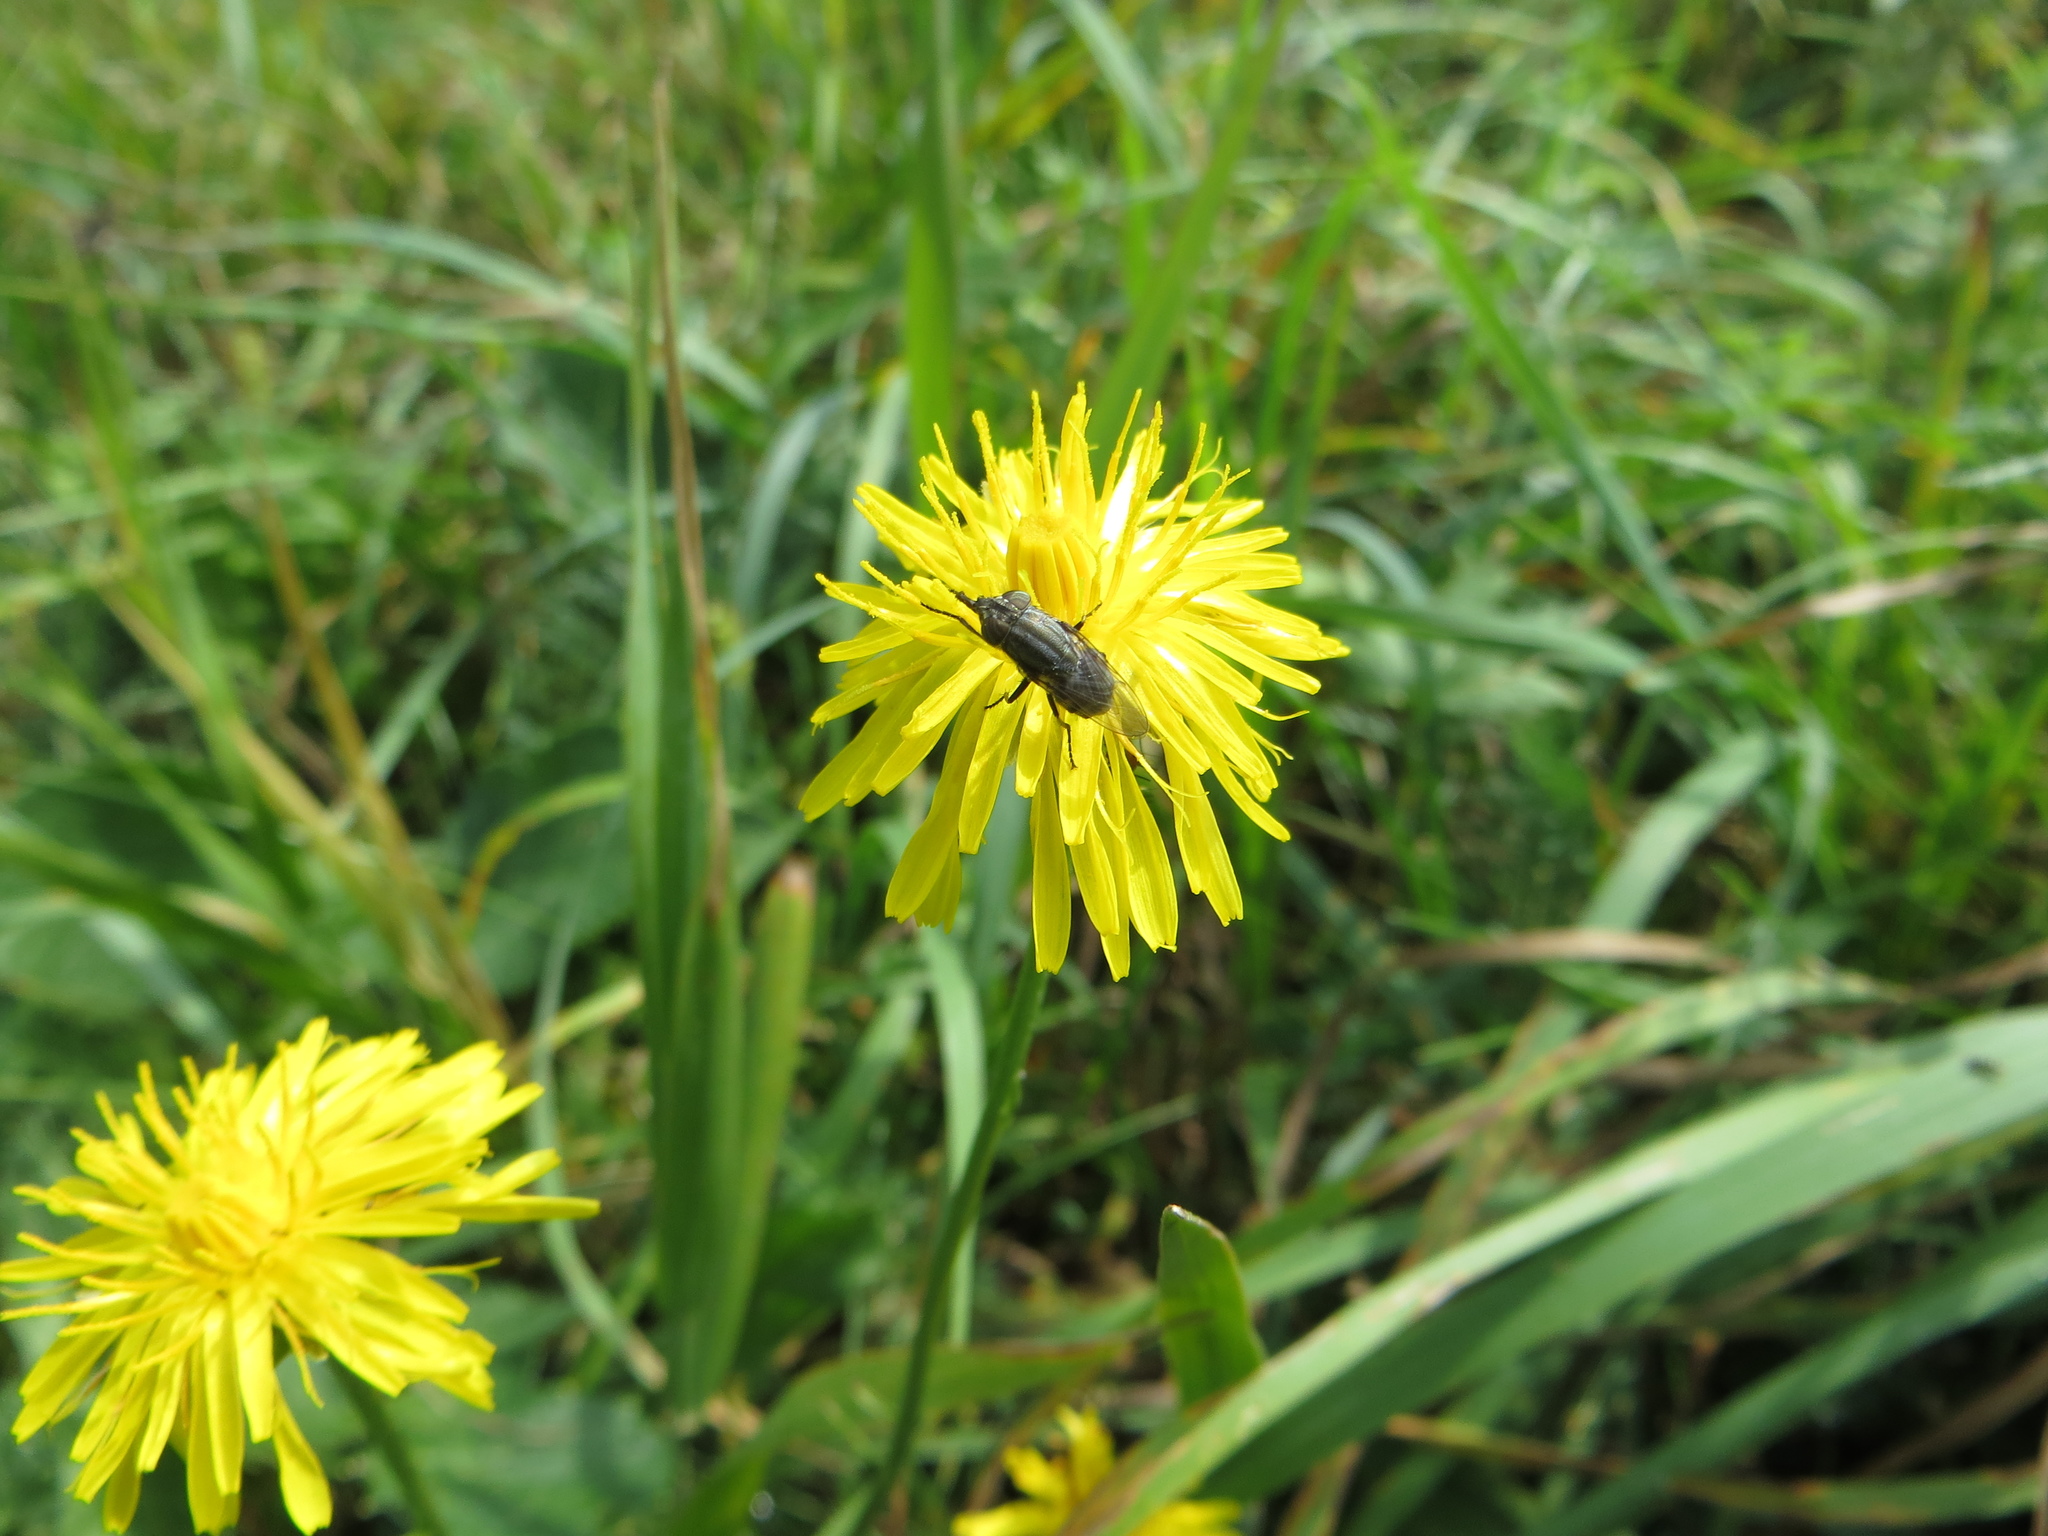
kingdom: Animalia
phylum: Arthropoda
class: Insecta
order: Diptera
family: Calliphoridae
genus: Stomorhina
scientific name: Stomorhina lunata
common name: Locust blowfly
